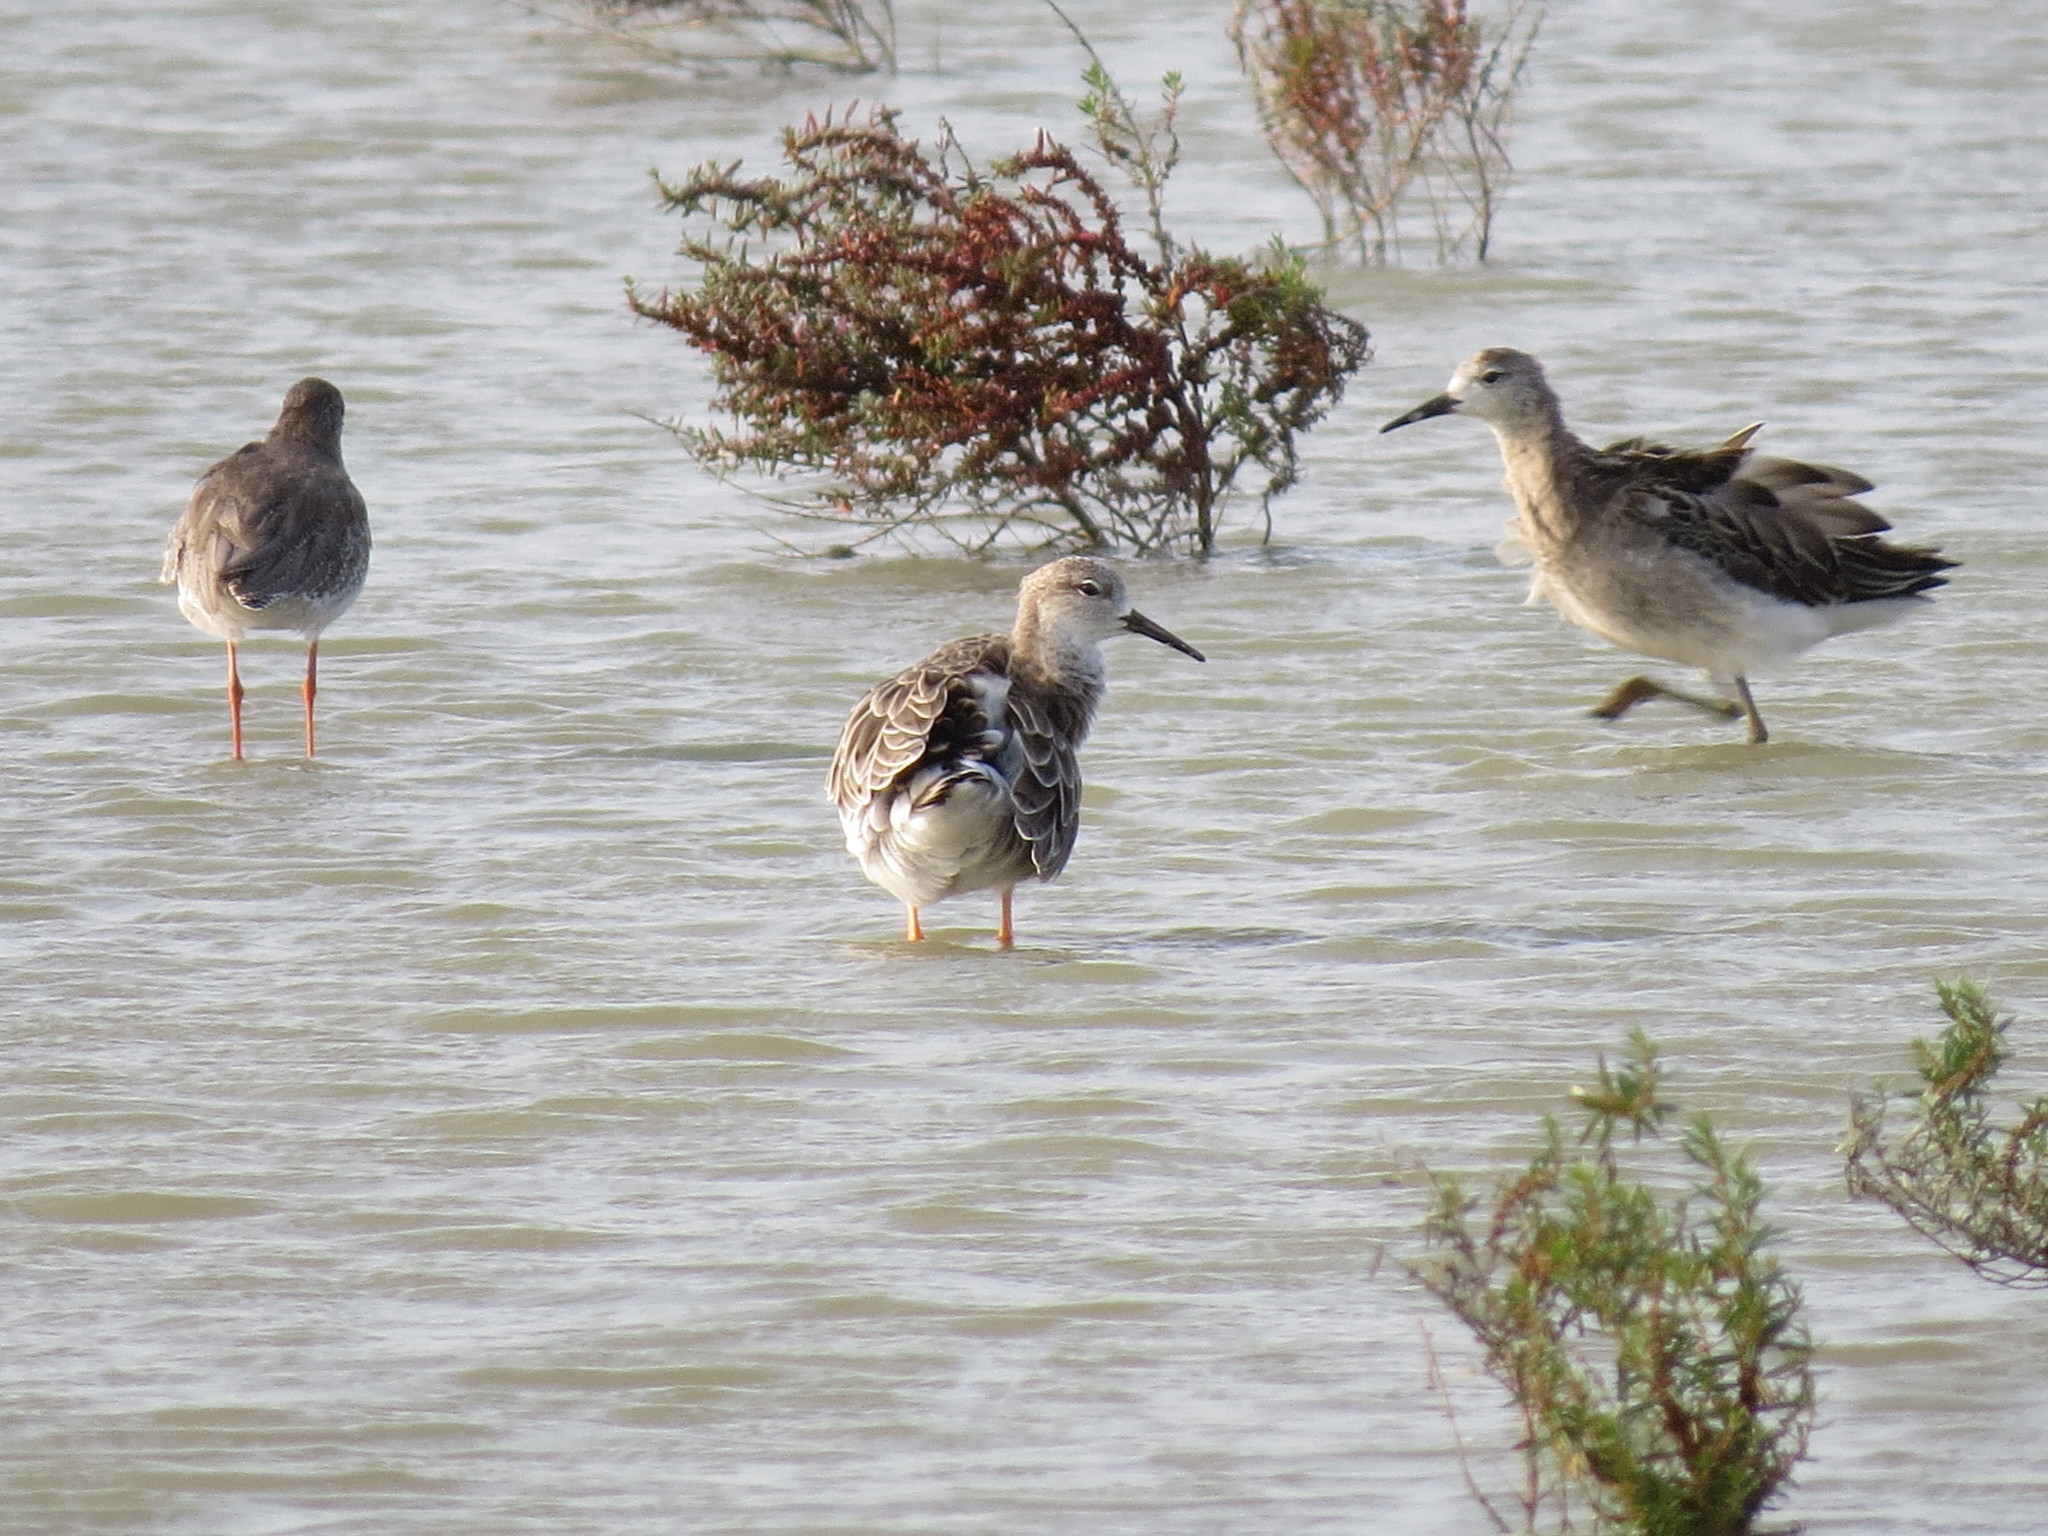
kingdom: Animalia
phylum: Chordata
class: Aves
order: Charadriiformes
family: Scolopacidae
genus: Calidris
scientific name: Calidris pugnax
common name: Ruff
